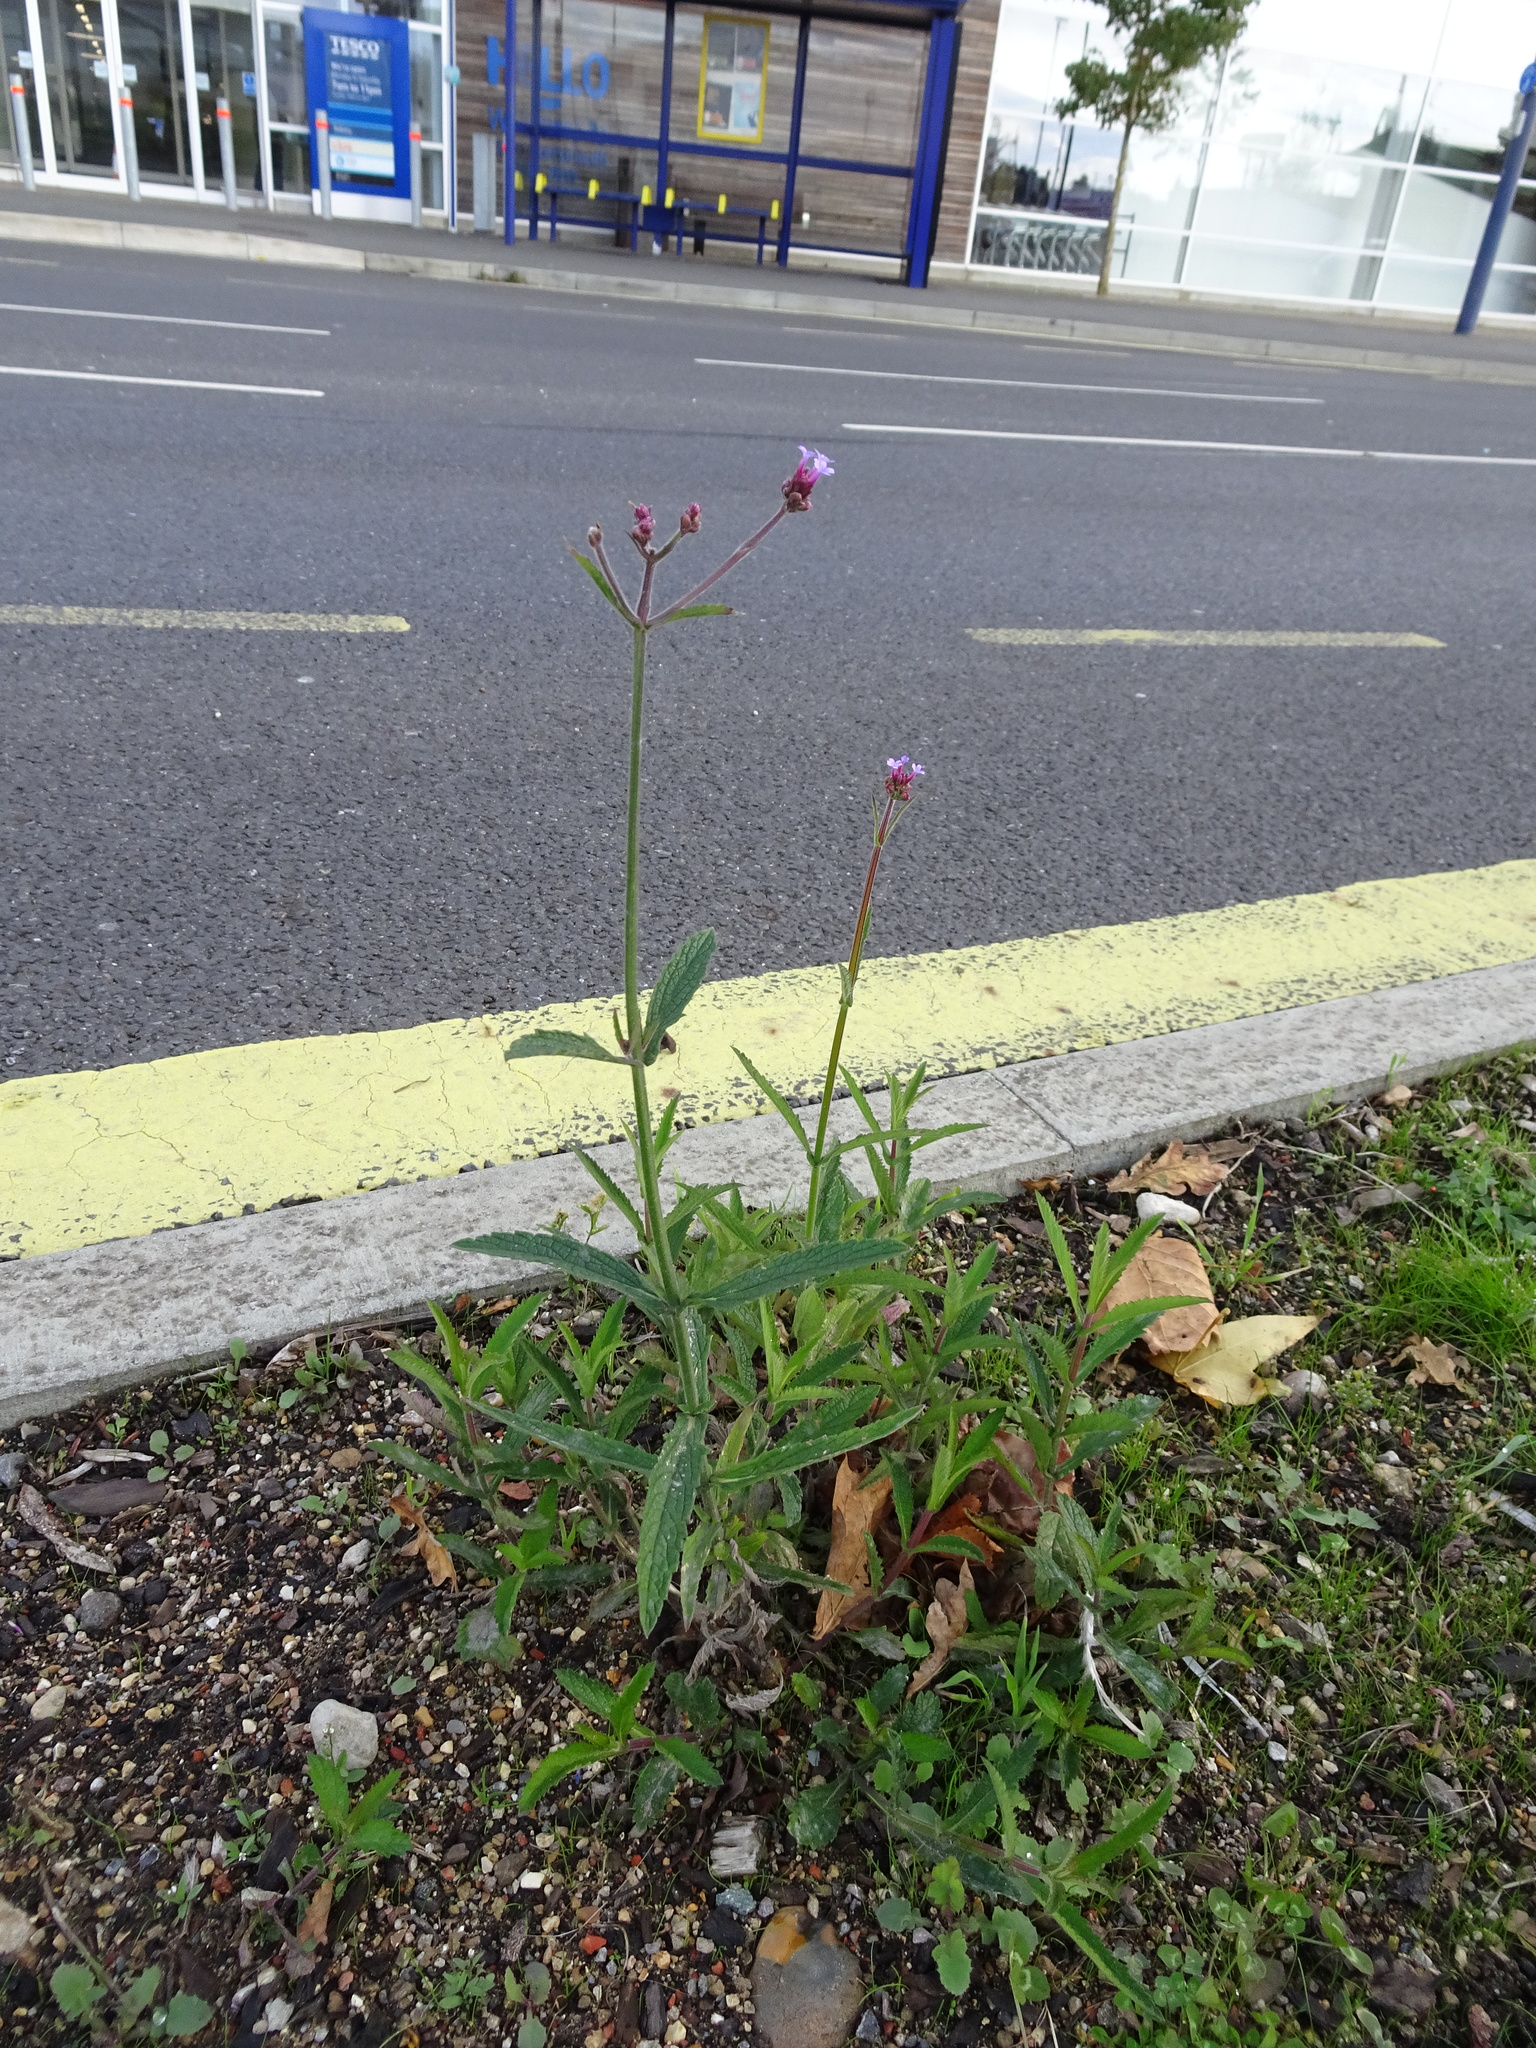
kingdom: Plantae
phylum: Tracheophyta
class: Magnoliopsida
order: Lamiales
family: Verbenaceae
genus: Verbena
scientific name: Verbena bonariensis
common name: Purpletop vervain
